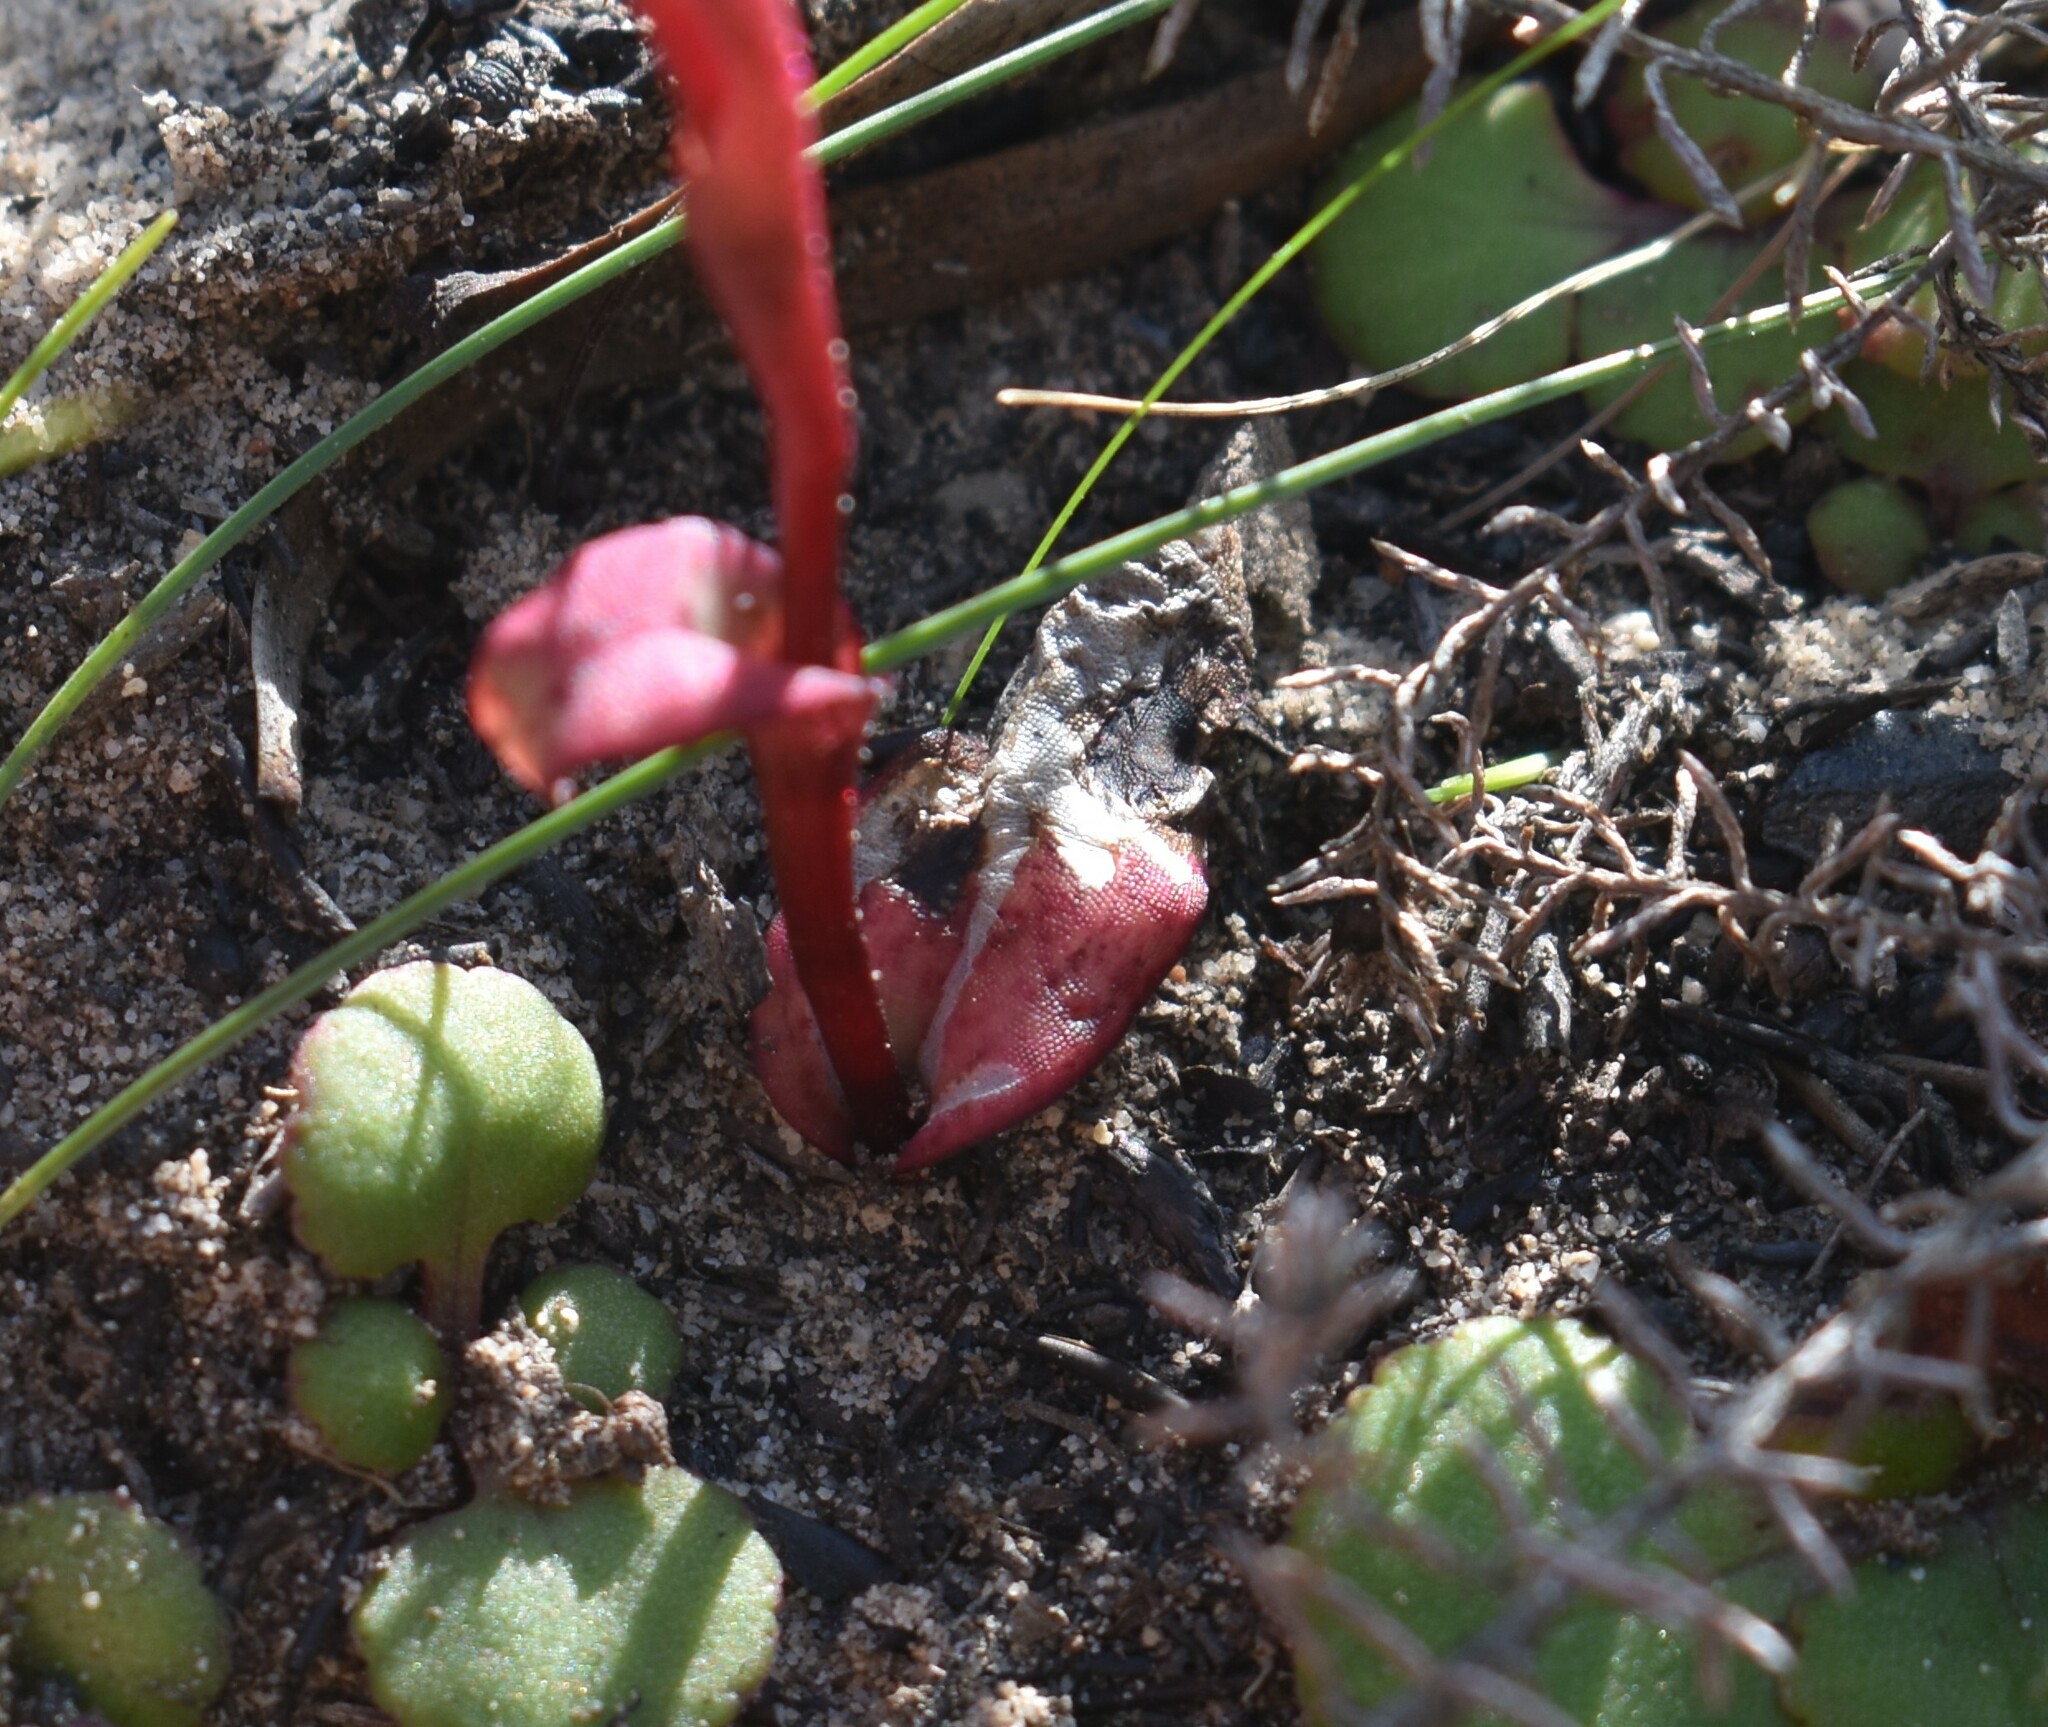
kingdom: Plantae
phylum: Tracheophyta
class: Liliopsida
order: Asparagales
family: Orchidaceae
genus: Satyrium
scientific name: Satyrium lupulinum
